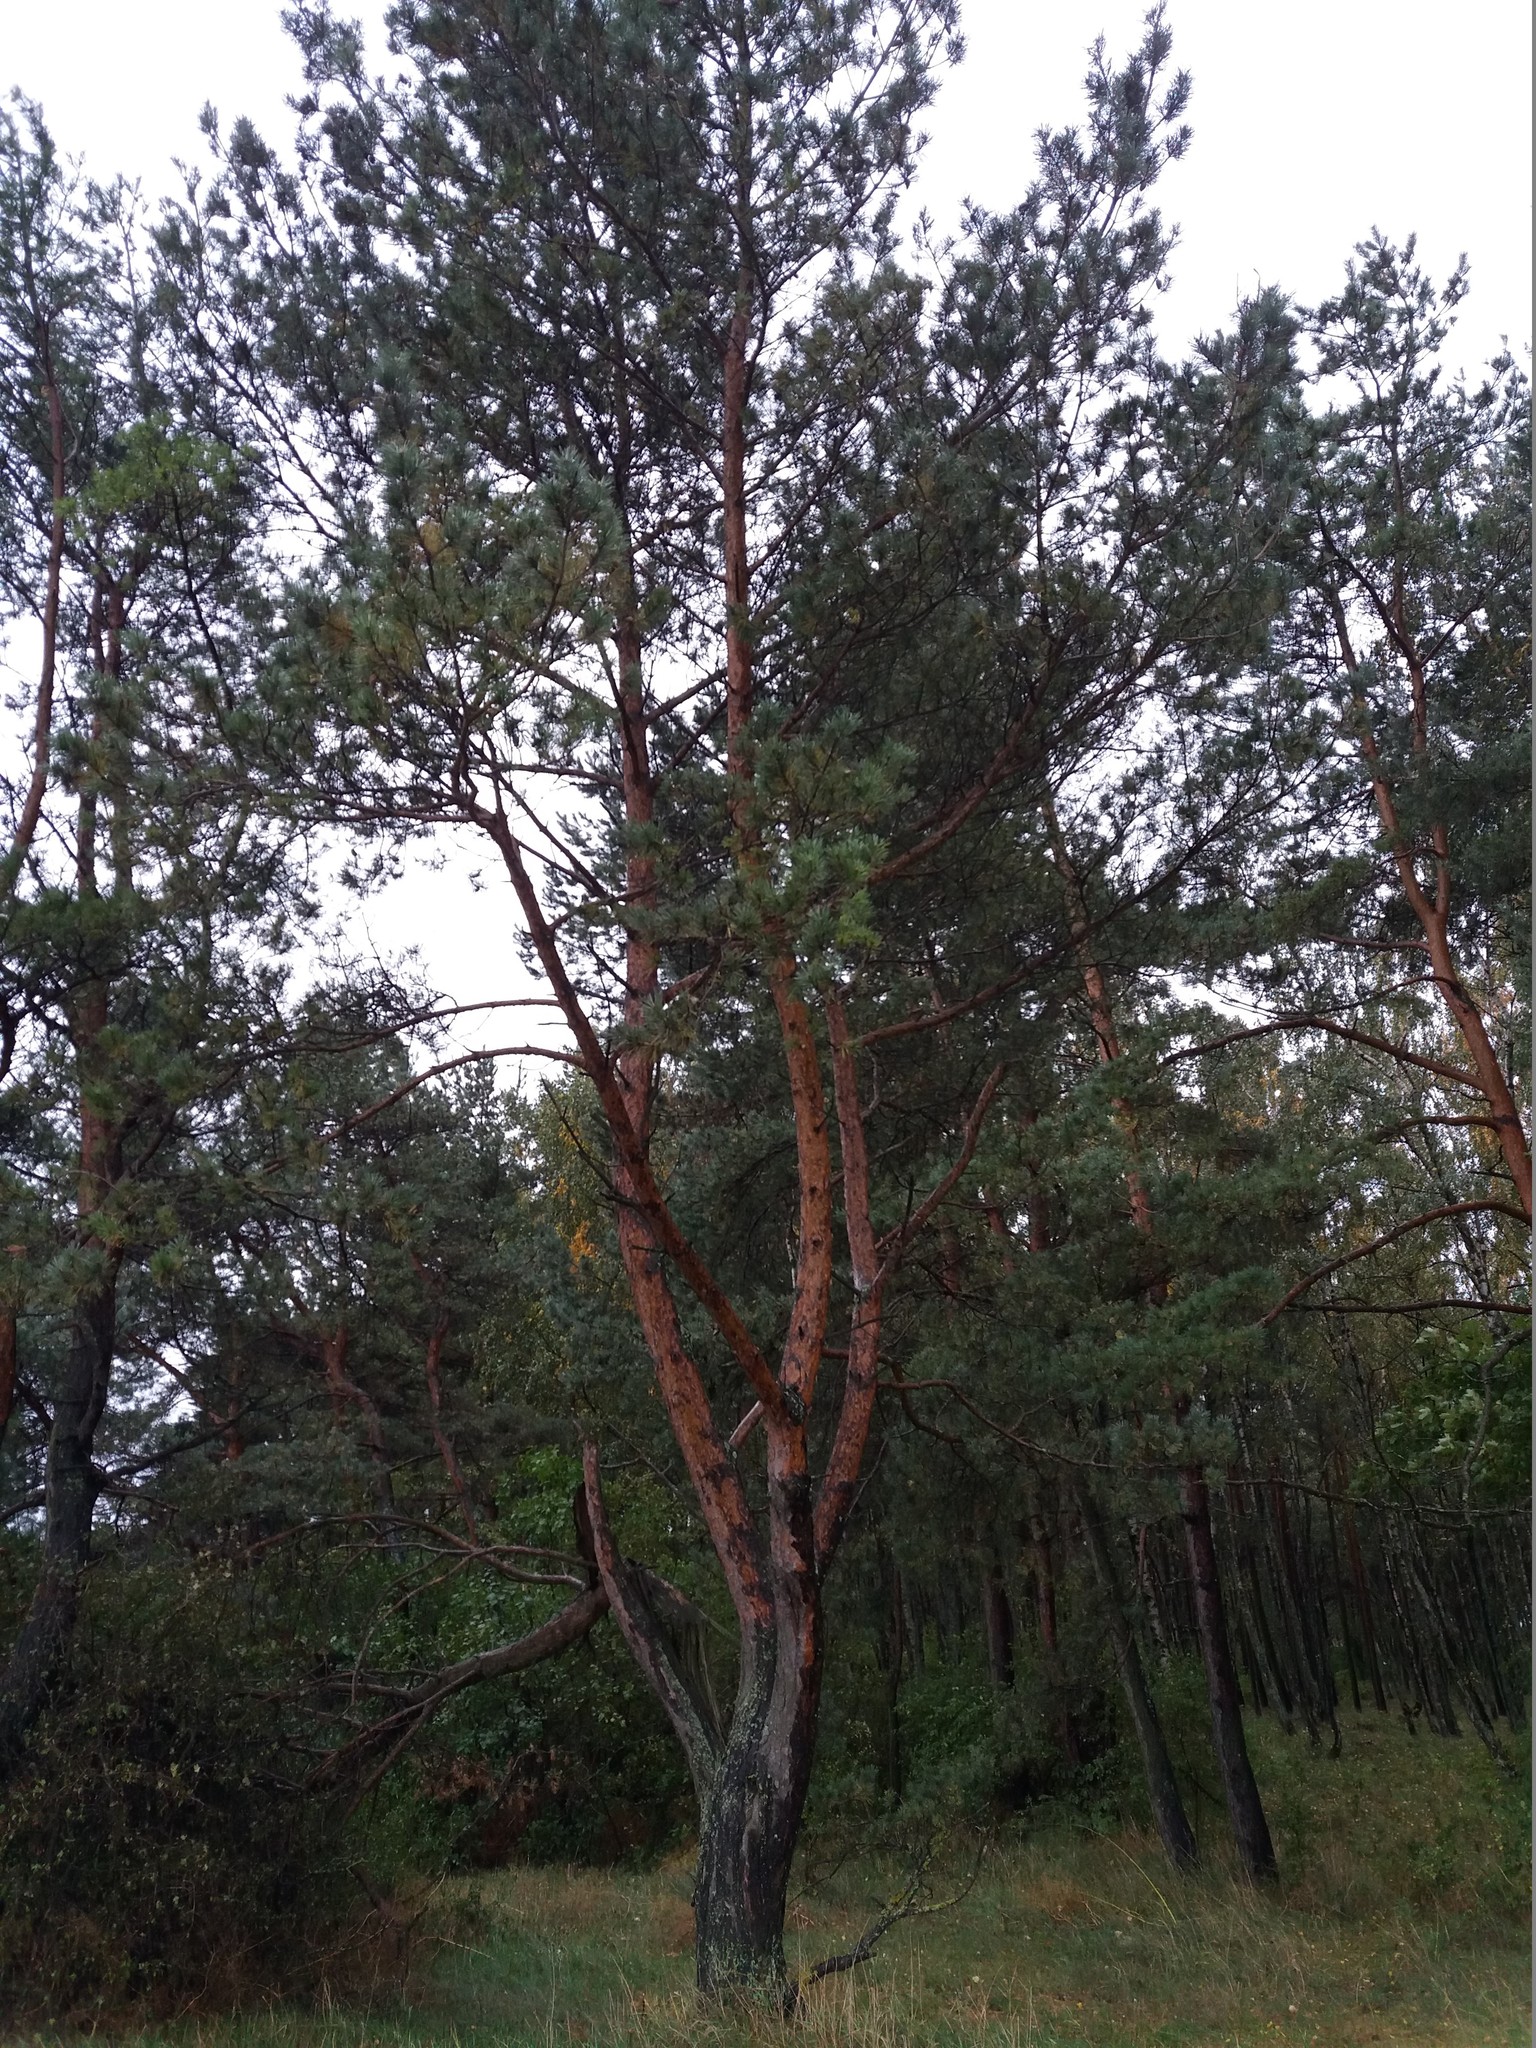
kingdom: Plantae
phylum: Tracheophyta
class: Pinopsida
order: Pinales
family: Pinaceae
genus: Pinus
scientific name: Pinus sylvestris
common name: Scots pine
